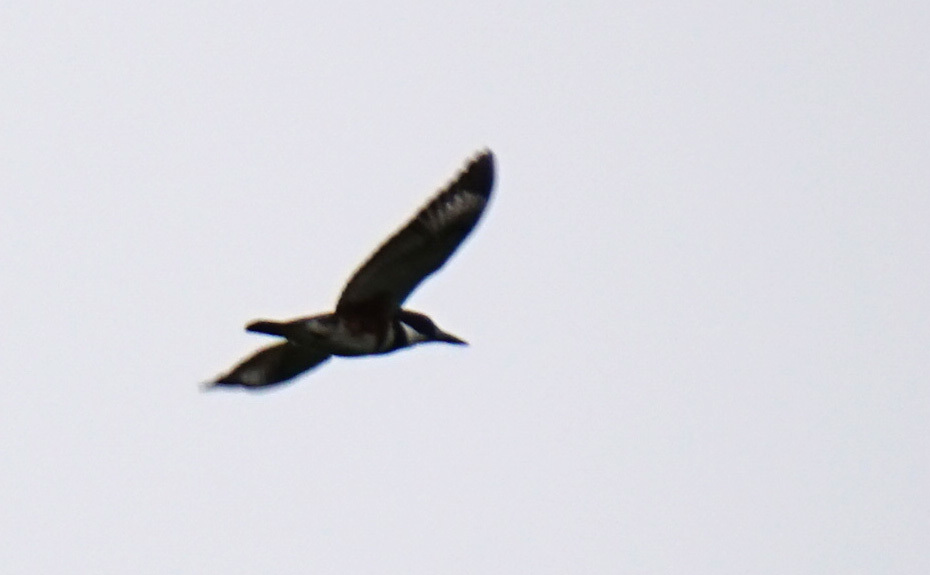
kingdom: Animalia
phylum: Chordata
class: Aves
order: Coraciiformes
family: Alcedinidae
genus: Megaceryle
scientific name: Megaceryle alcyon
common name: Belted kingfisher
